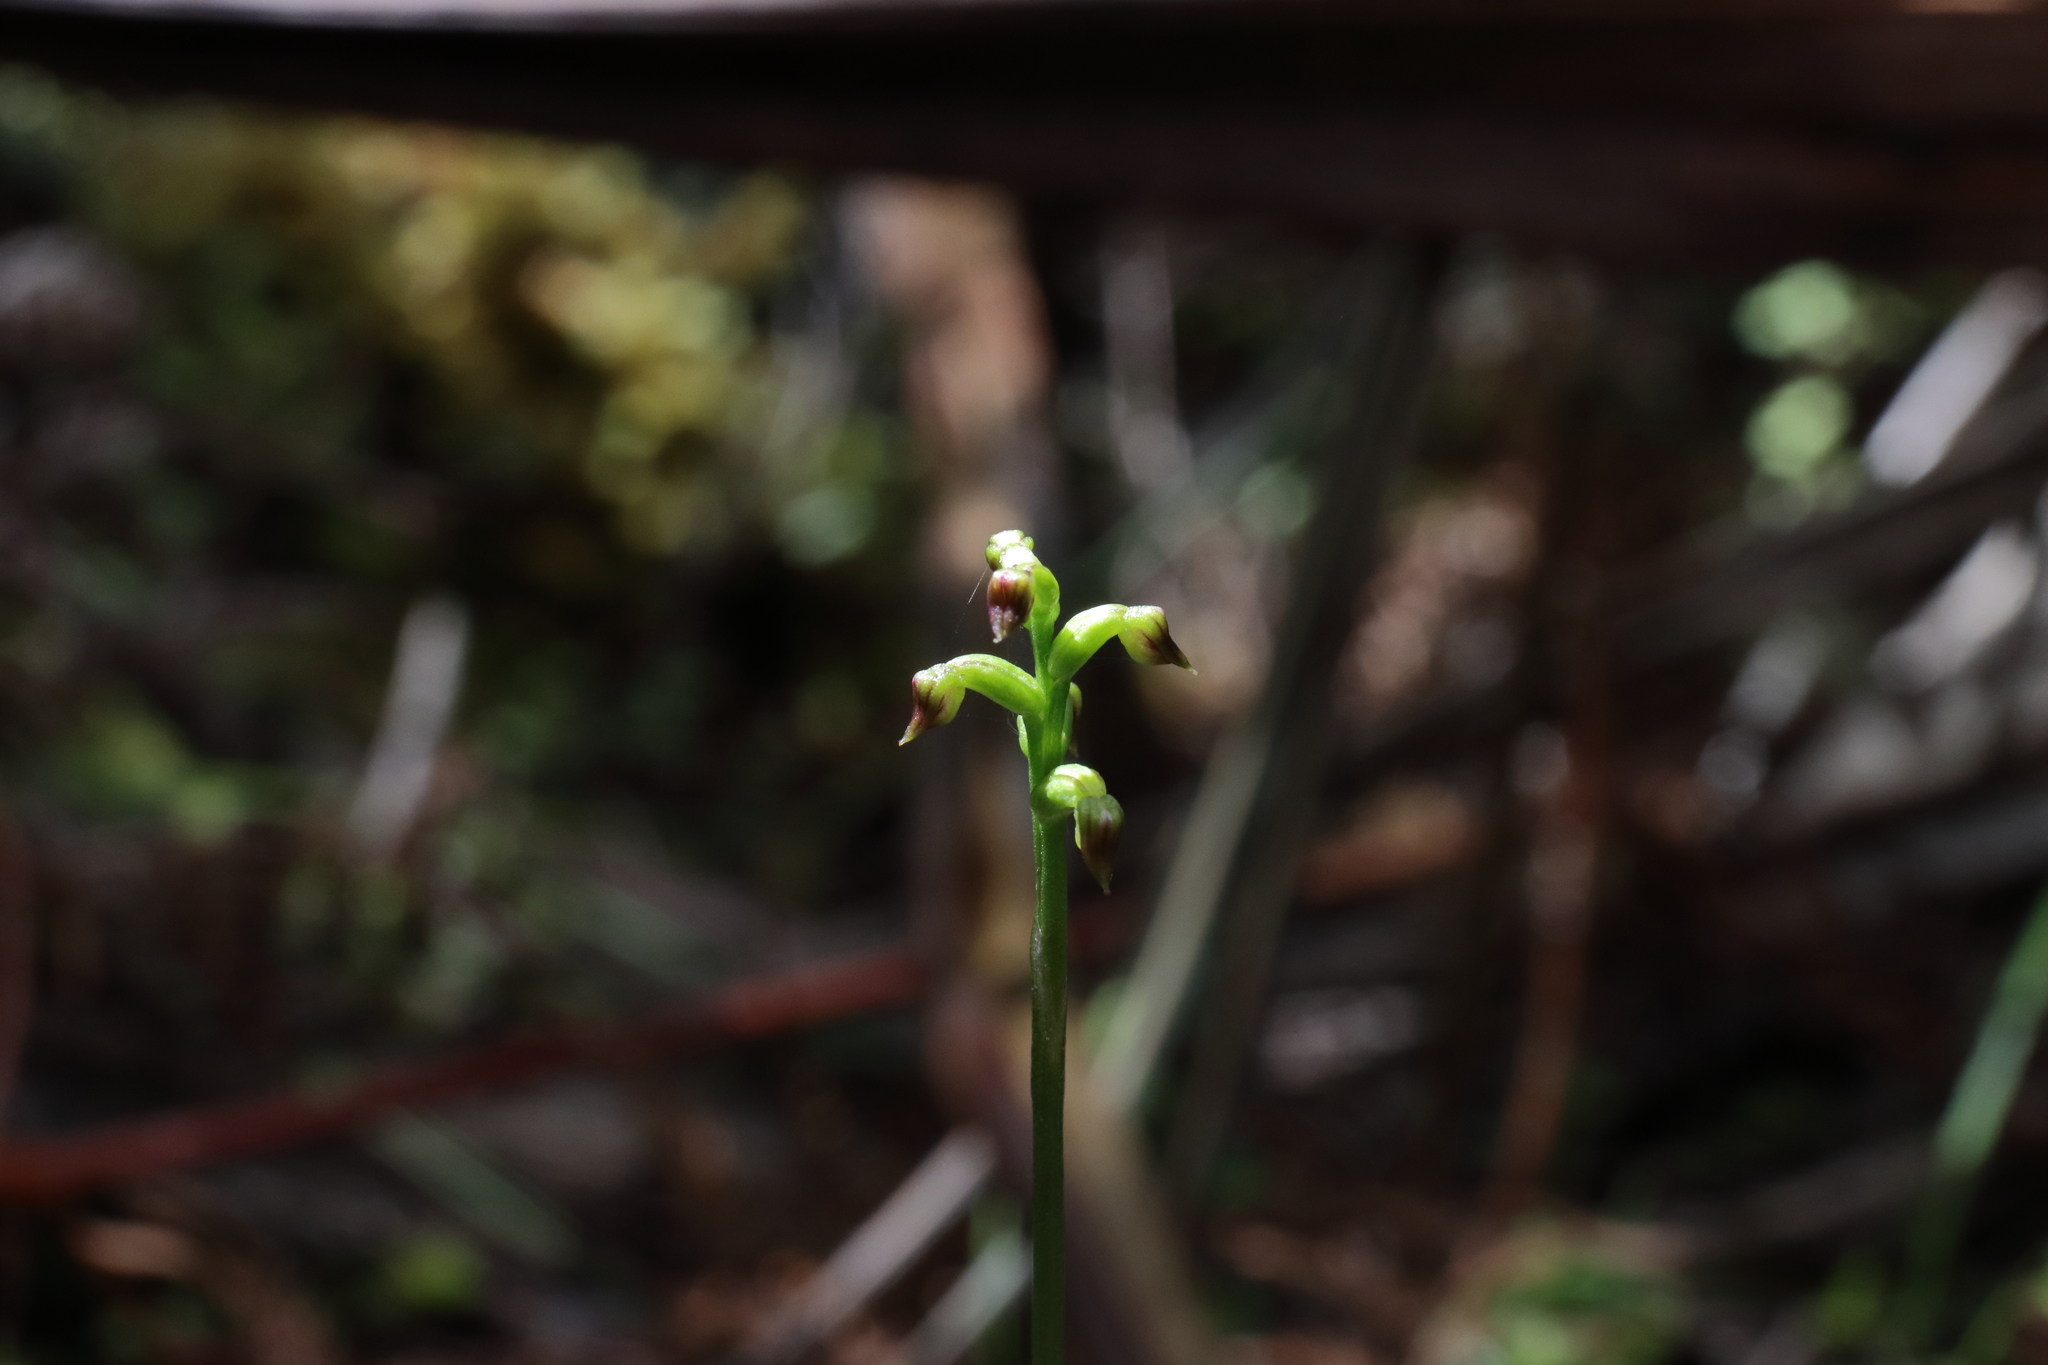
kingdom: Plantae
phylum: Tracheophyta
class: Liliopsida
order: Asparagales
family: Orchidaceae
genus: Genoplesium
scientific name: Genoplesium nudum
